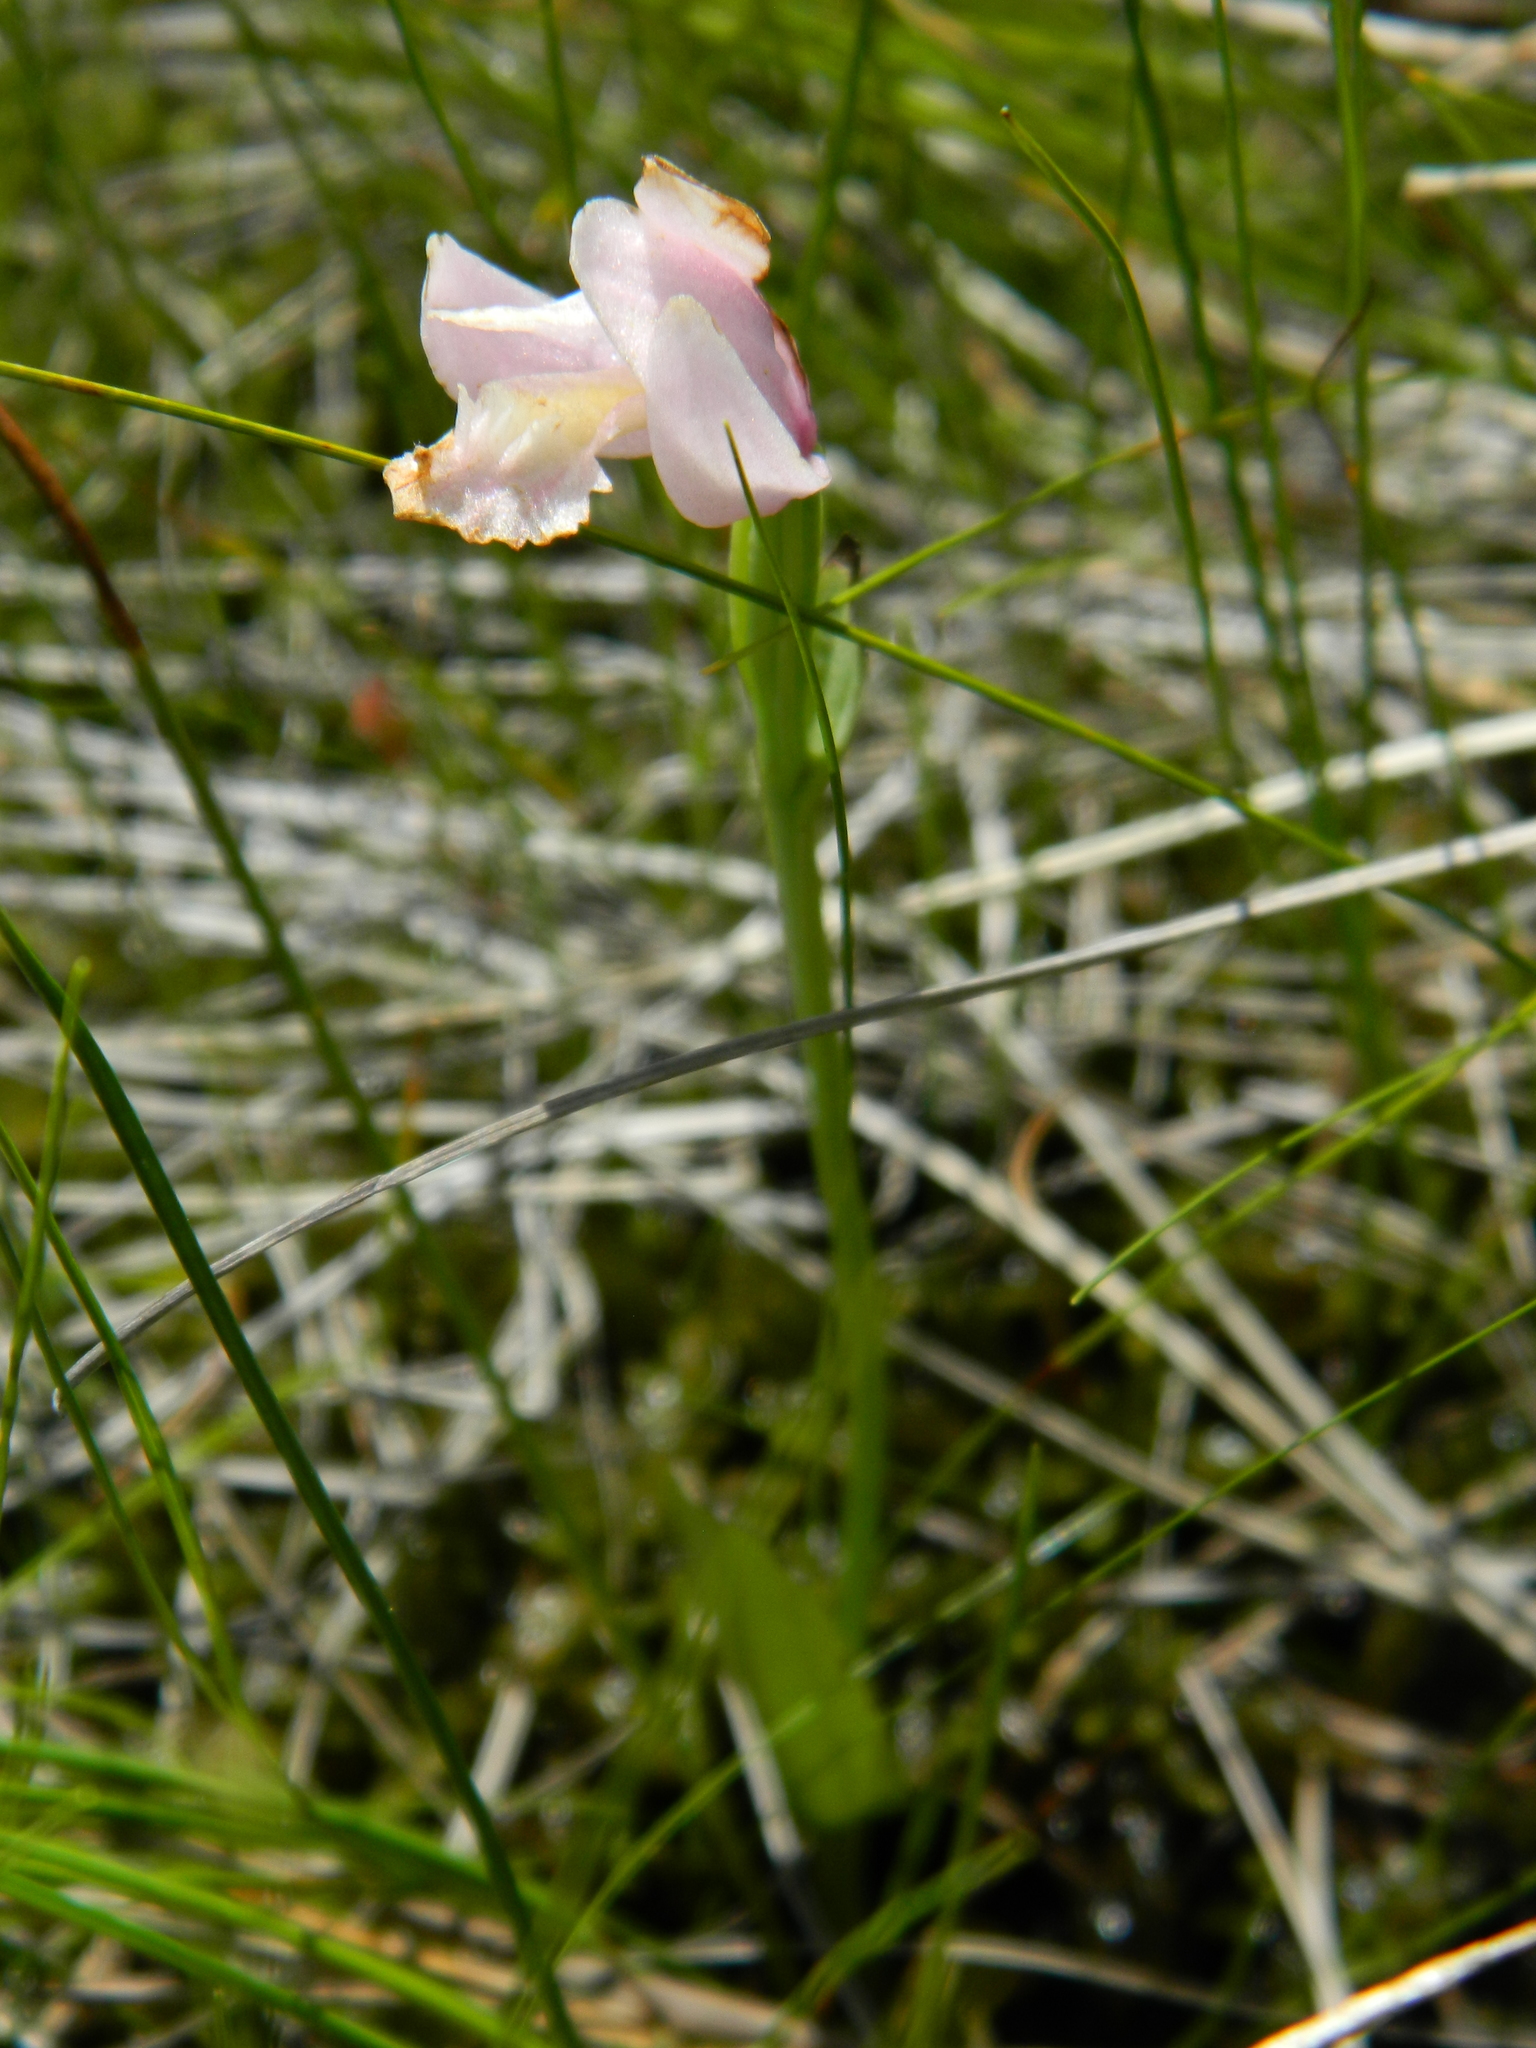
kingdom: Plantae
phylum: Tracheophyta
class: Liliopsida
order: Asparagales
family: Orchidaceae
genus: Pogonia
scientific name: Pogonia ophioglossoides
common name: Rose pogonia
